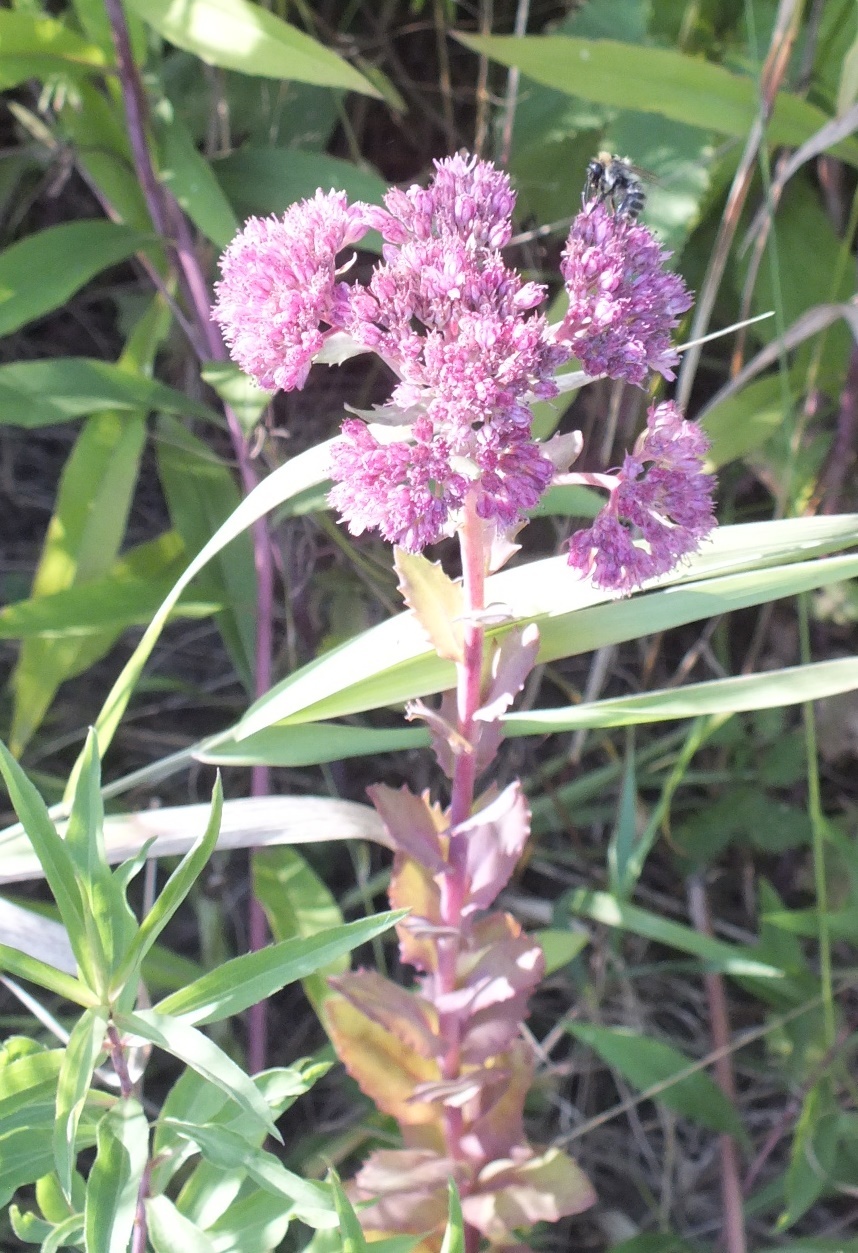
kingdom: Plantae
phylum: Tracheophyta
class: Magnoliopsida
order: Saxifragales
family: Crassulaceae
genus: Hylotelephium
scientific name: Hylotelephium telephium
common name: Live-forever
